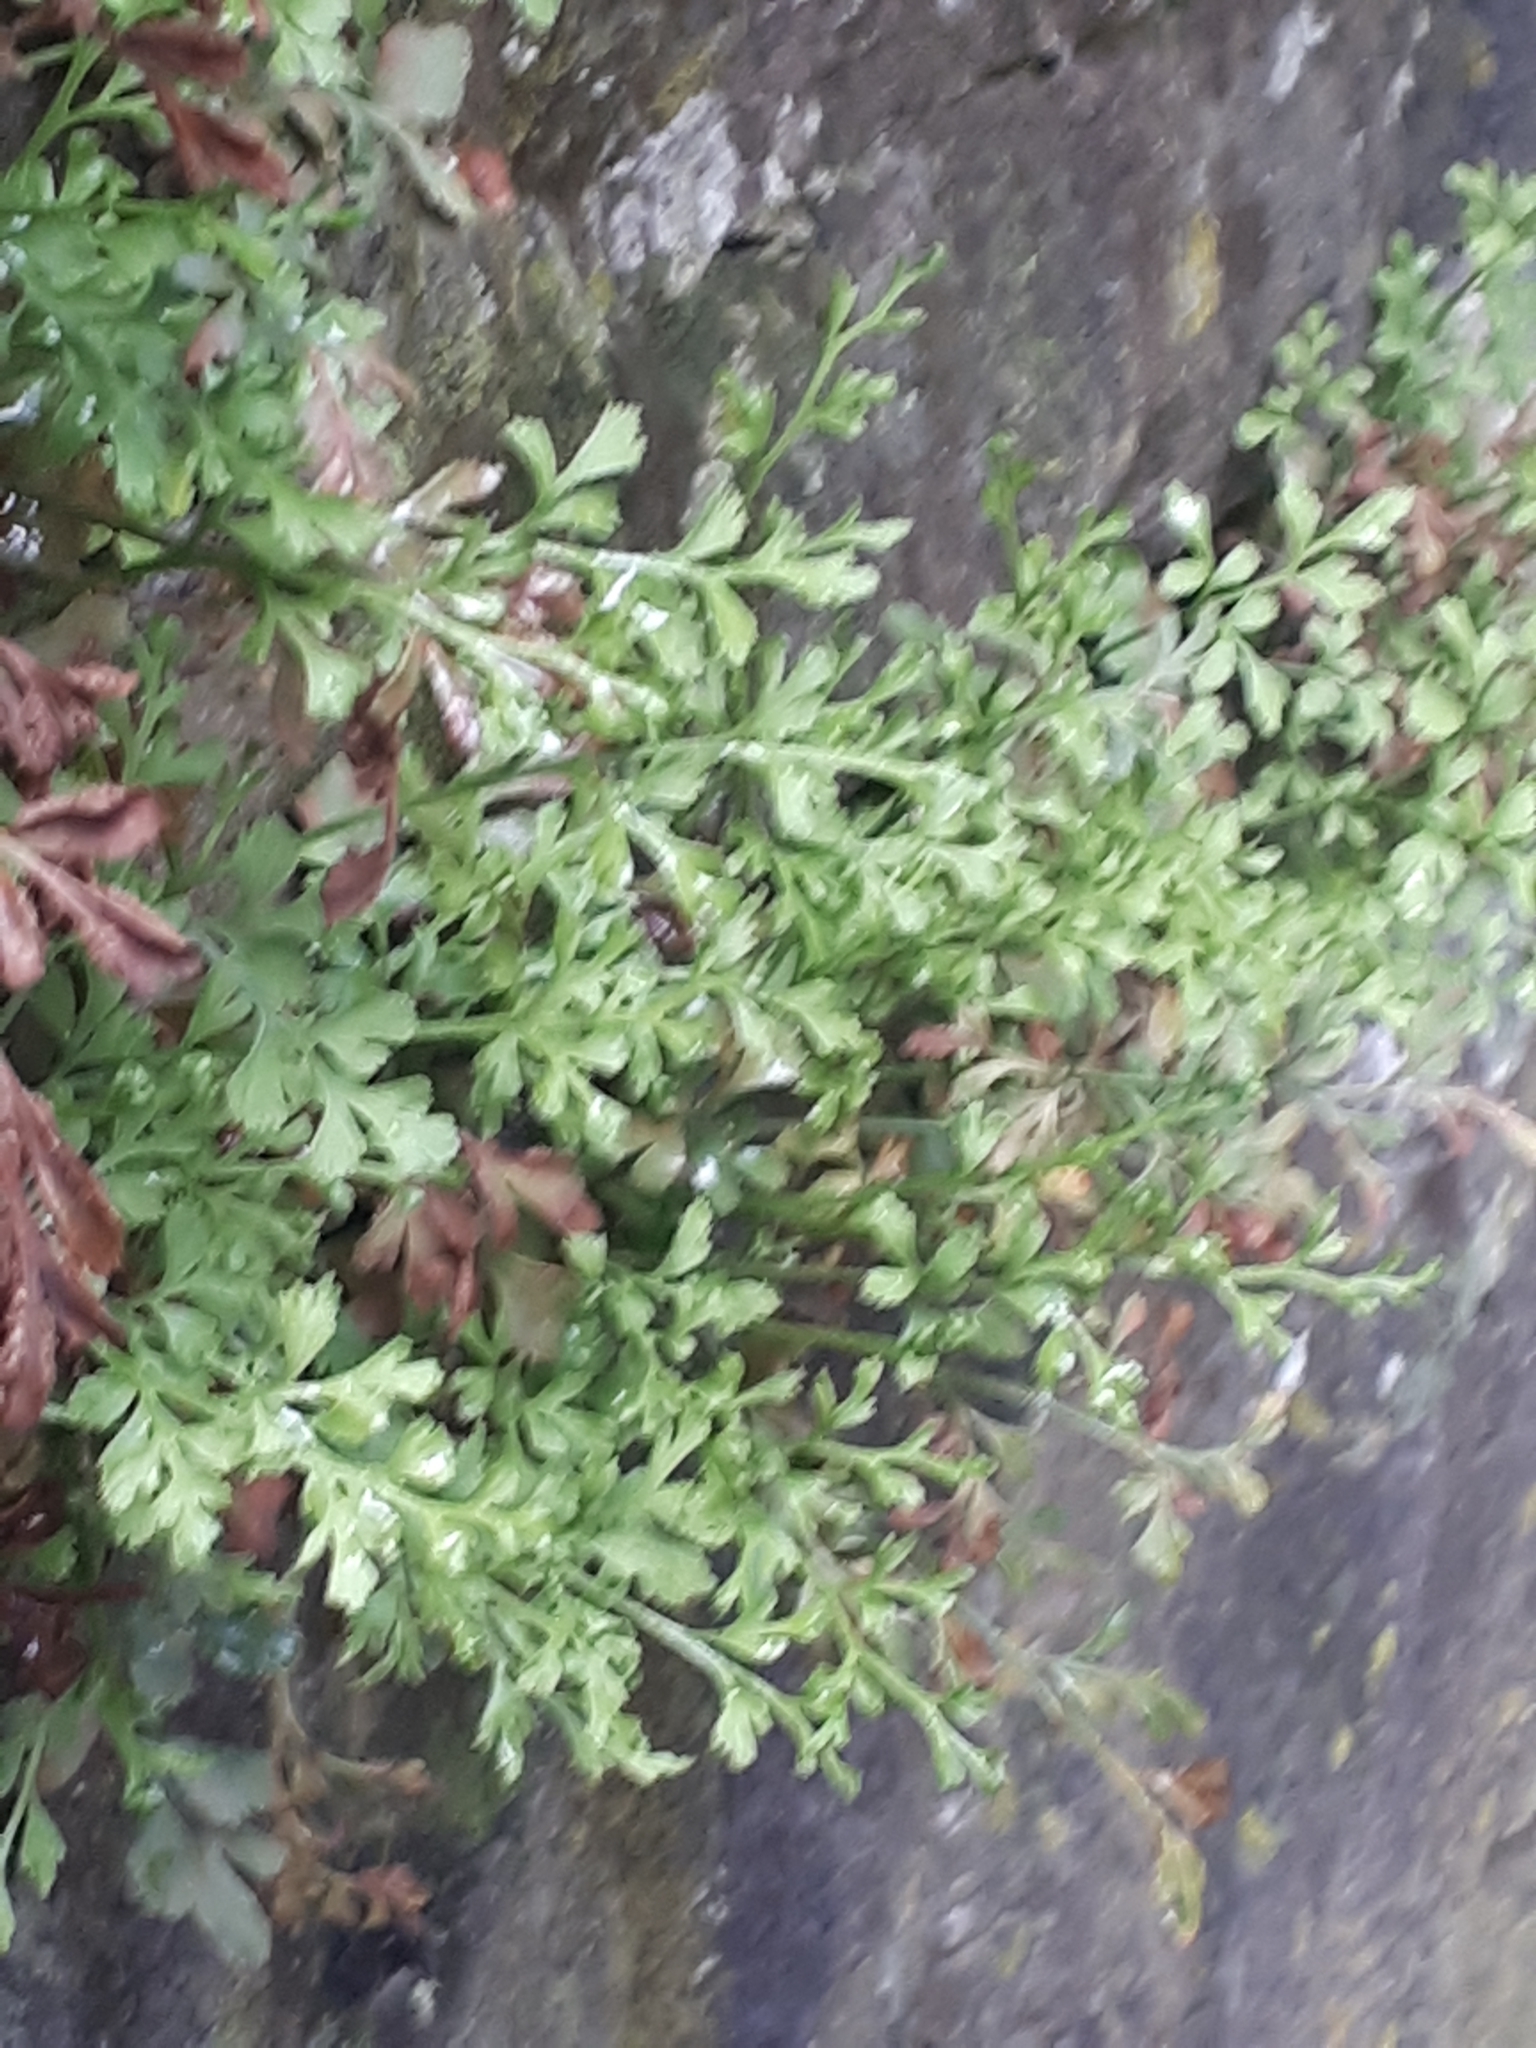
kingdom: Plantae
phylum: Tracheophyta
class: Polypodiopsida
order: Polypodiales
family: Aspleniaceae
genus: Asplenium
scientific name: Asplenium ruta-muraria
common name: Wall-rue
